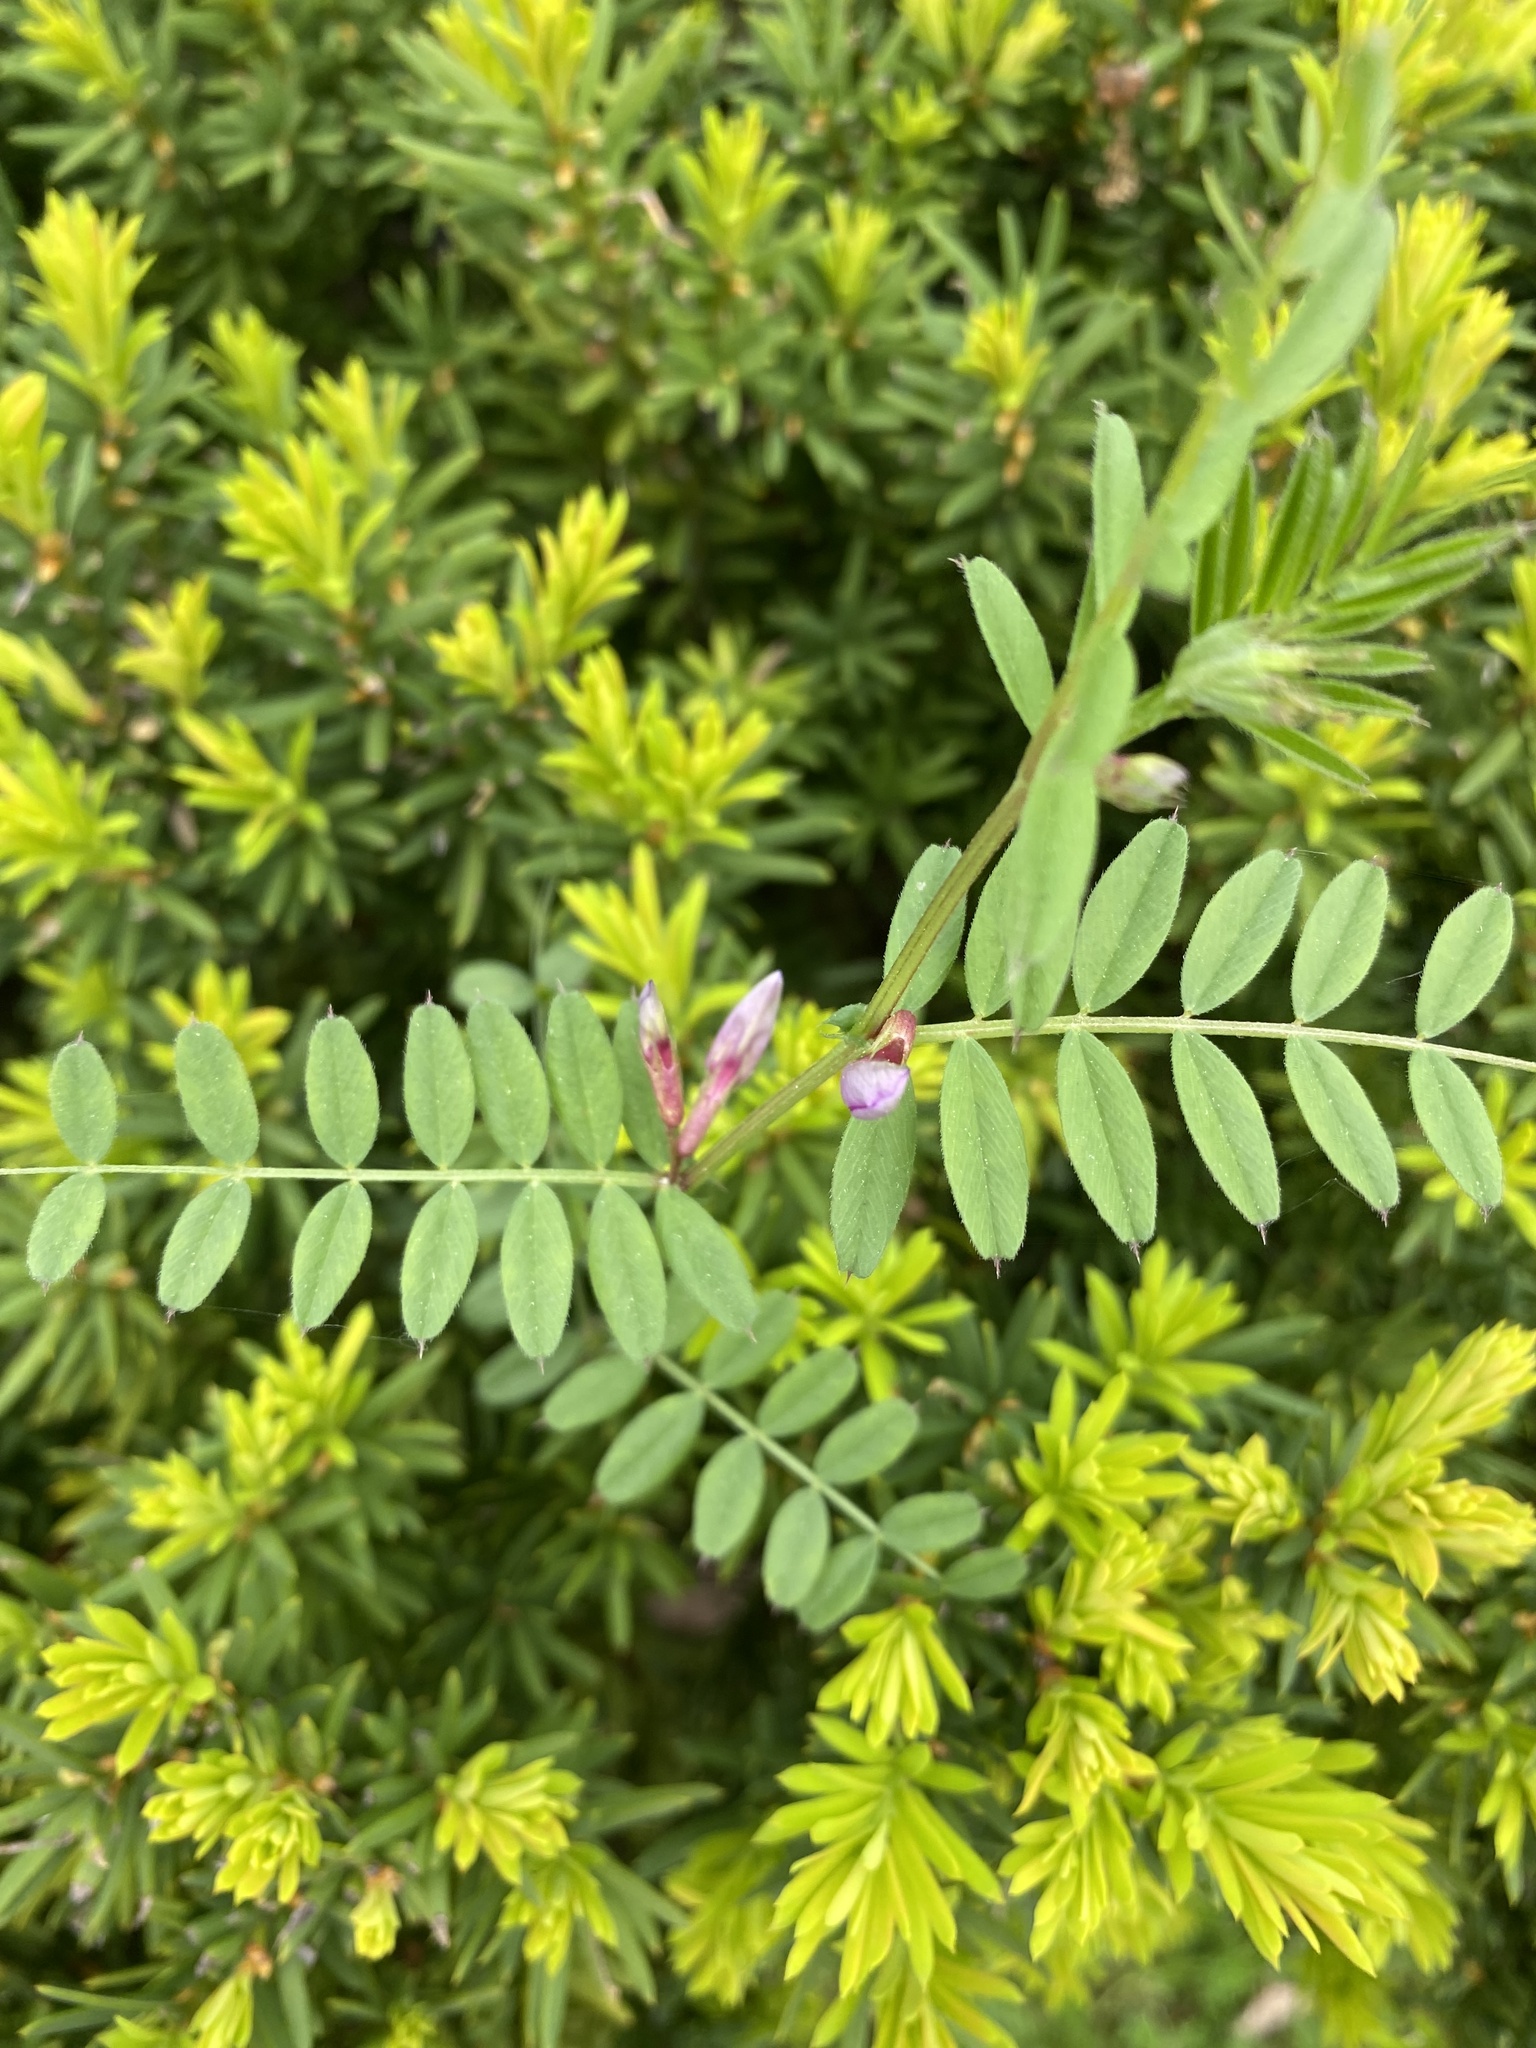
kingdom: Plantae
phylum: Tracheophyta
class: Magnoliopsida
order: Fabales
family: Fabaceae
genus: Vicia
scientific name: Vicia sativa
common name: Garden vetch
